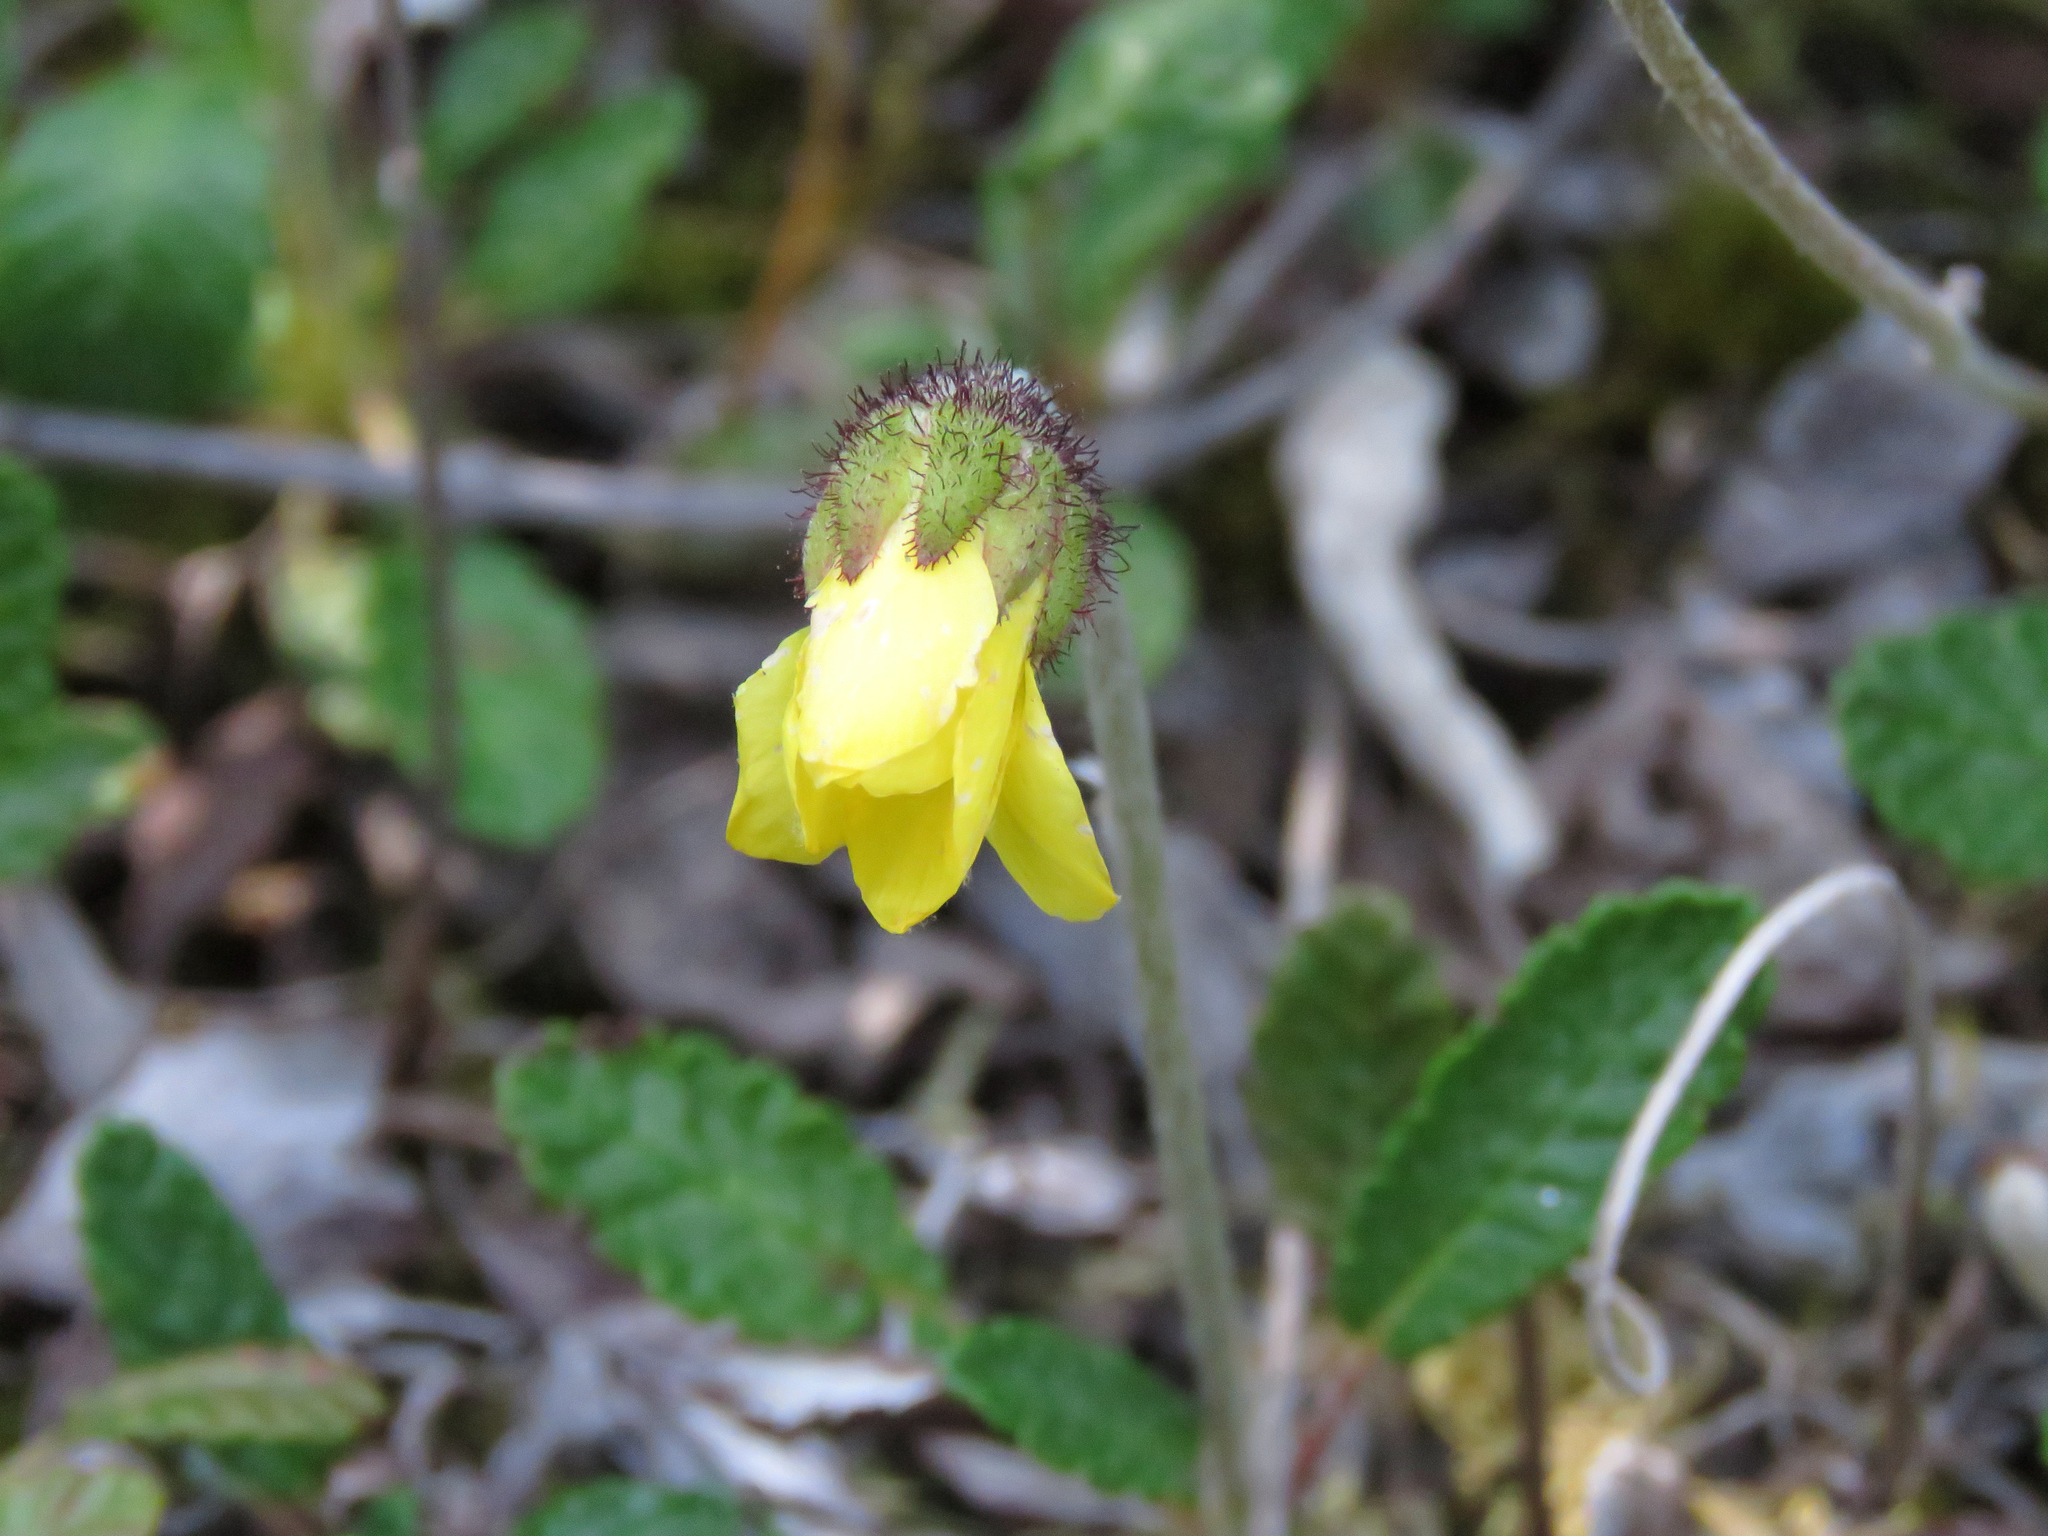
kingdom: Plantae
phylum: Tracheophyta
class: Magnoliopsida
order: Rosales
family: Rosaceae
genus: Dryas
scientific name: Dryas drummondii
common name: Drummond's dryad
